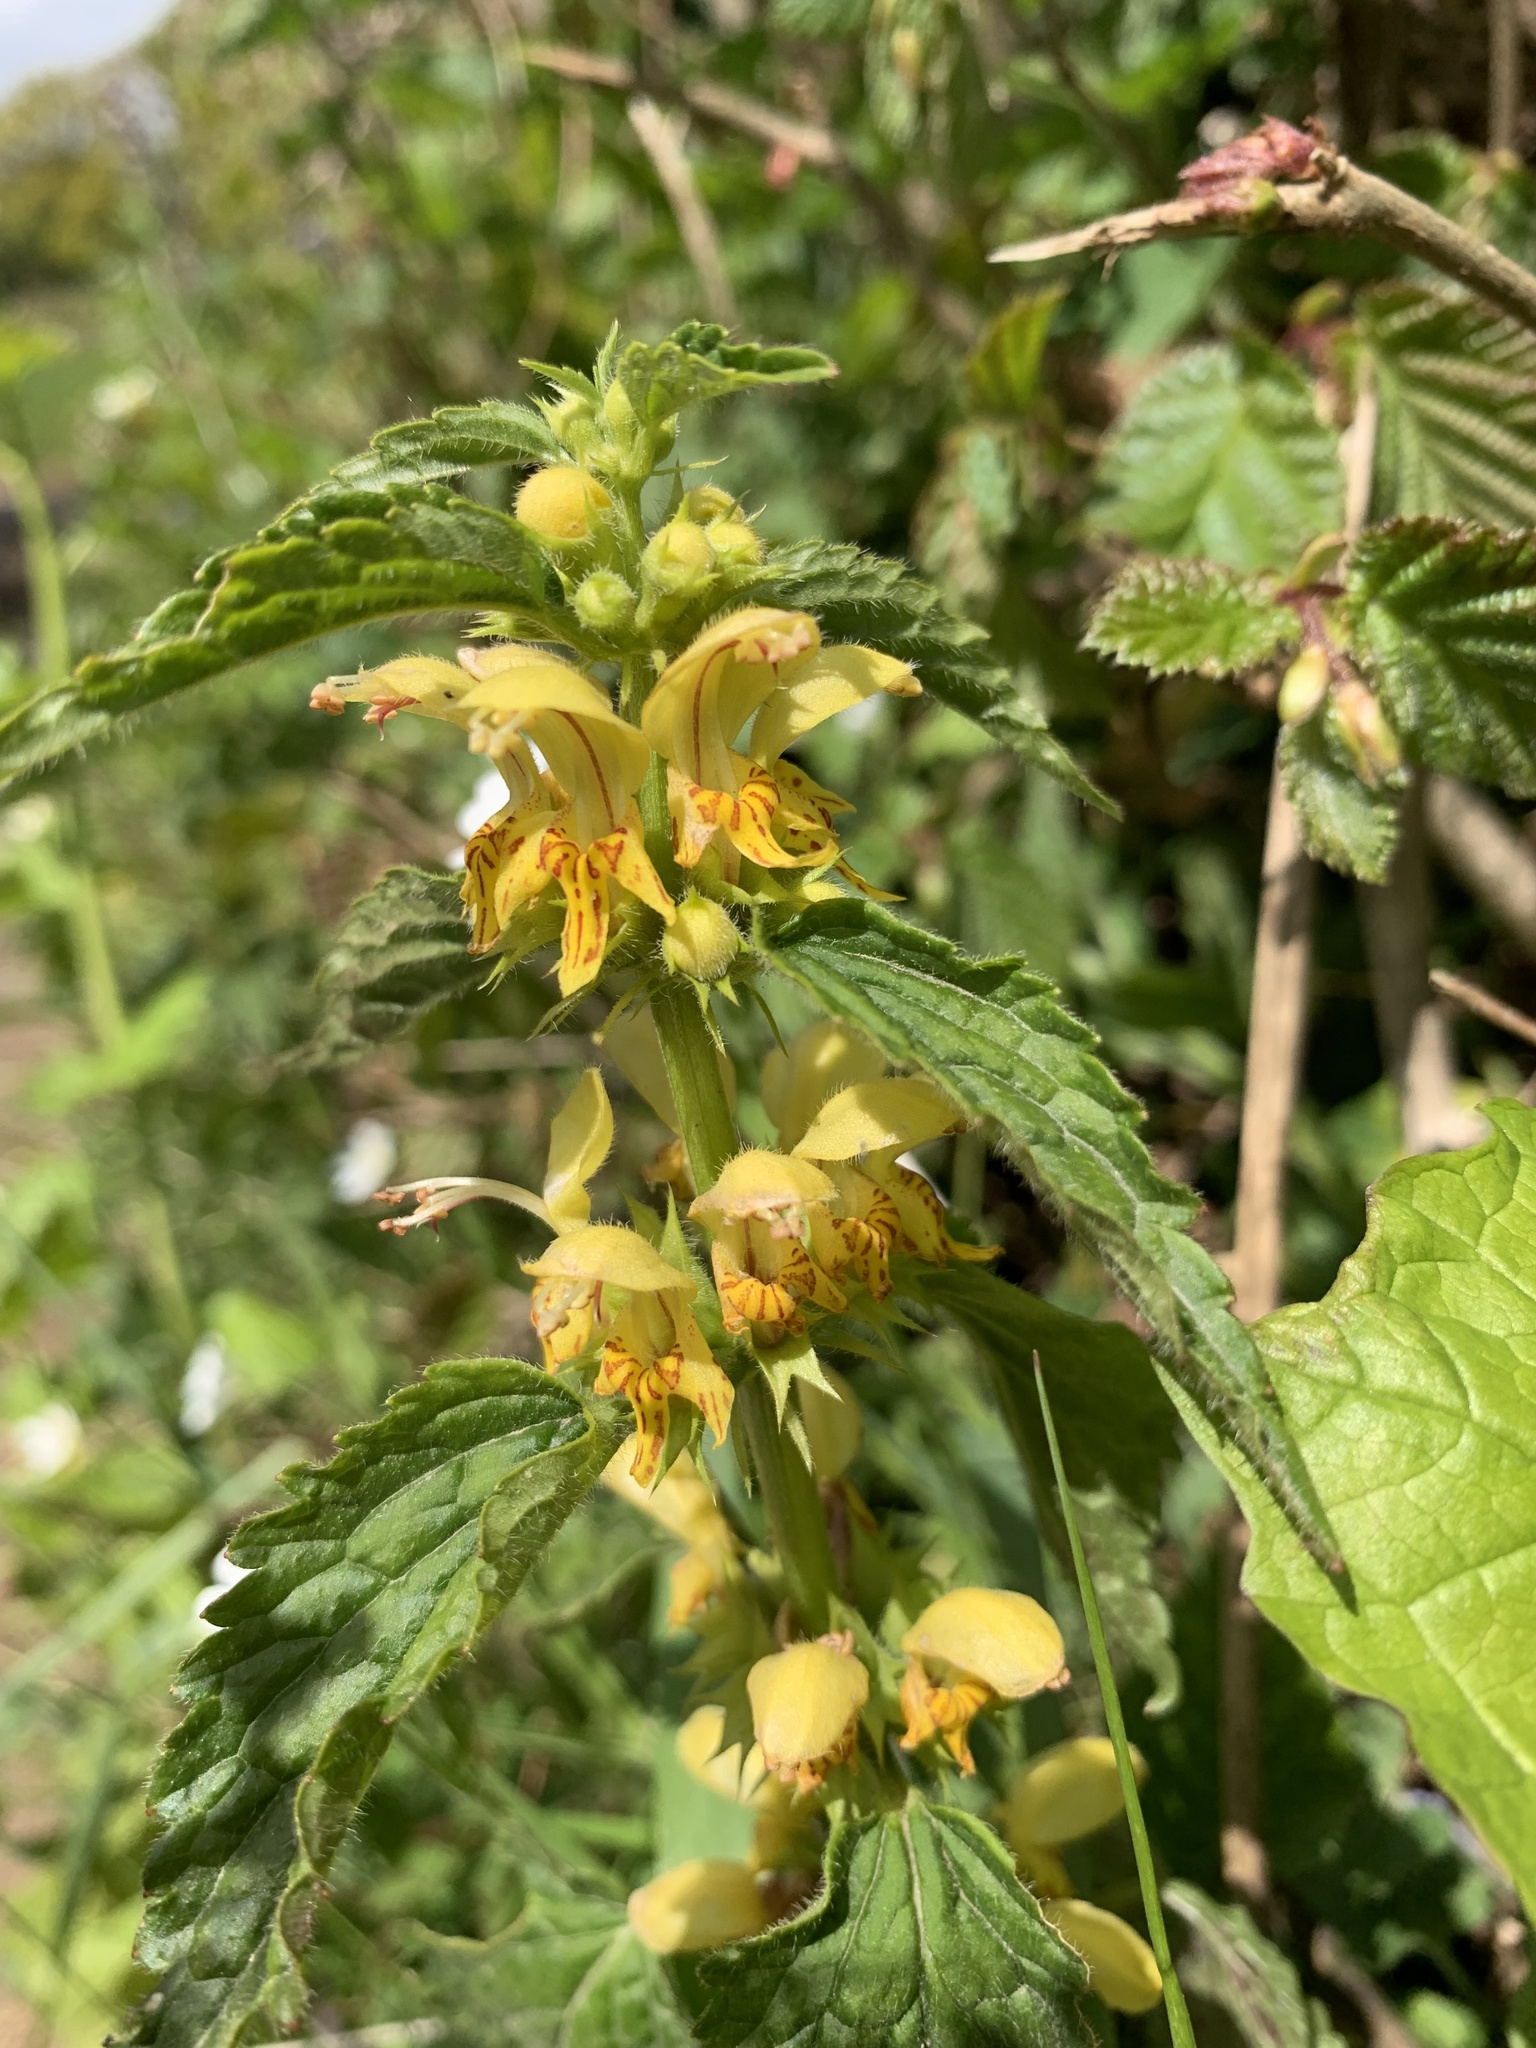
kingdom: Plantae
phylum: Tracheophyta
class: Magnoliopsida
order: Lamiales
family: Lamiaceae
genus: Lamium
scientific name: Lamium galeobdolon
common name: Yellow archangel
